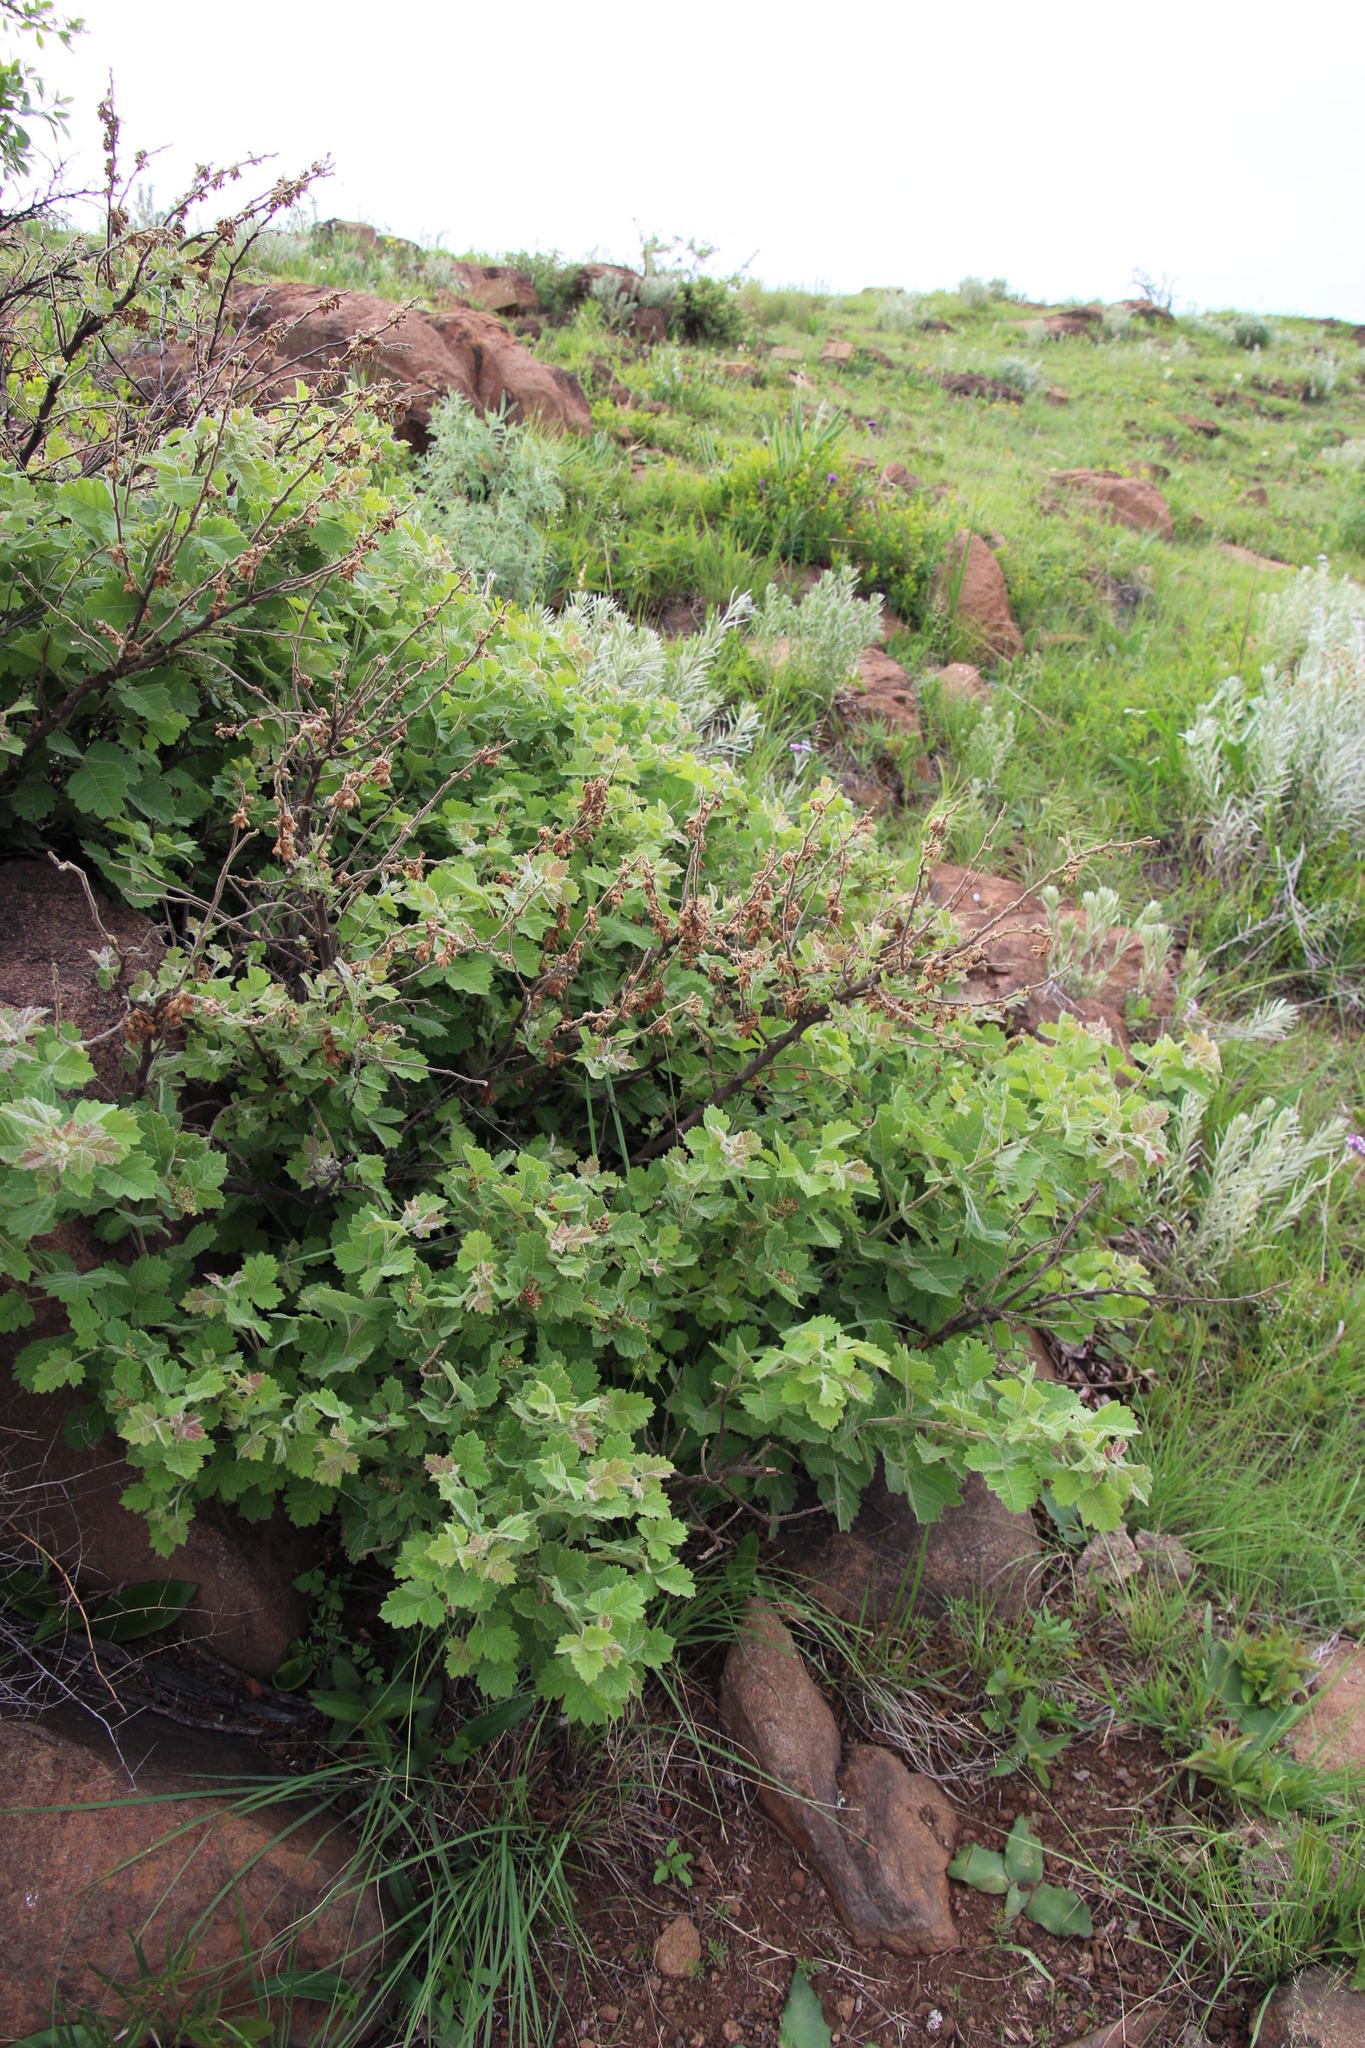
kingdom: Plantae
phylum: Tracheophyta
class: Magnoliopsida
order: Sapindales
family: Anacardiaceae
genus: Searsia
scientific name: Searsia dentata
